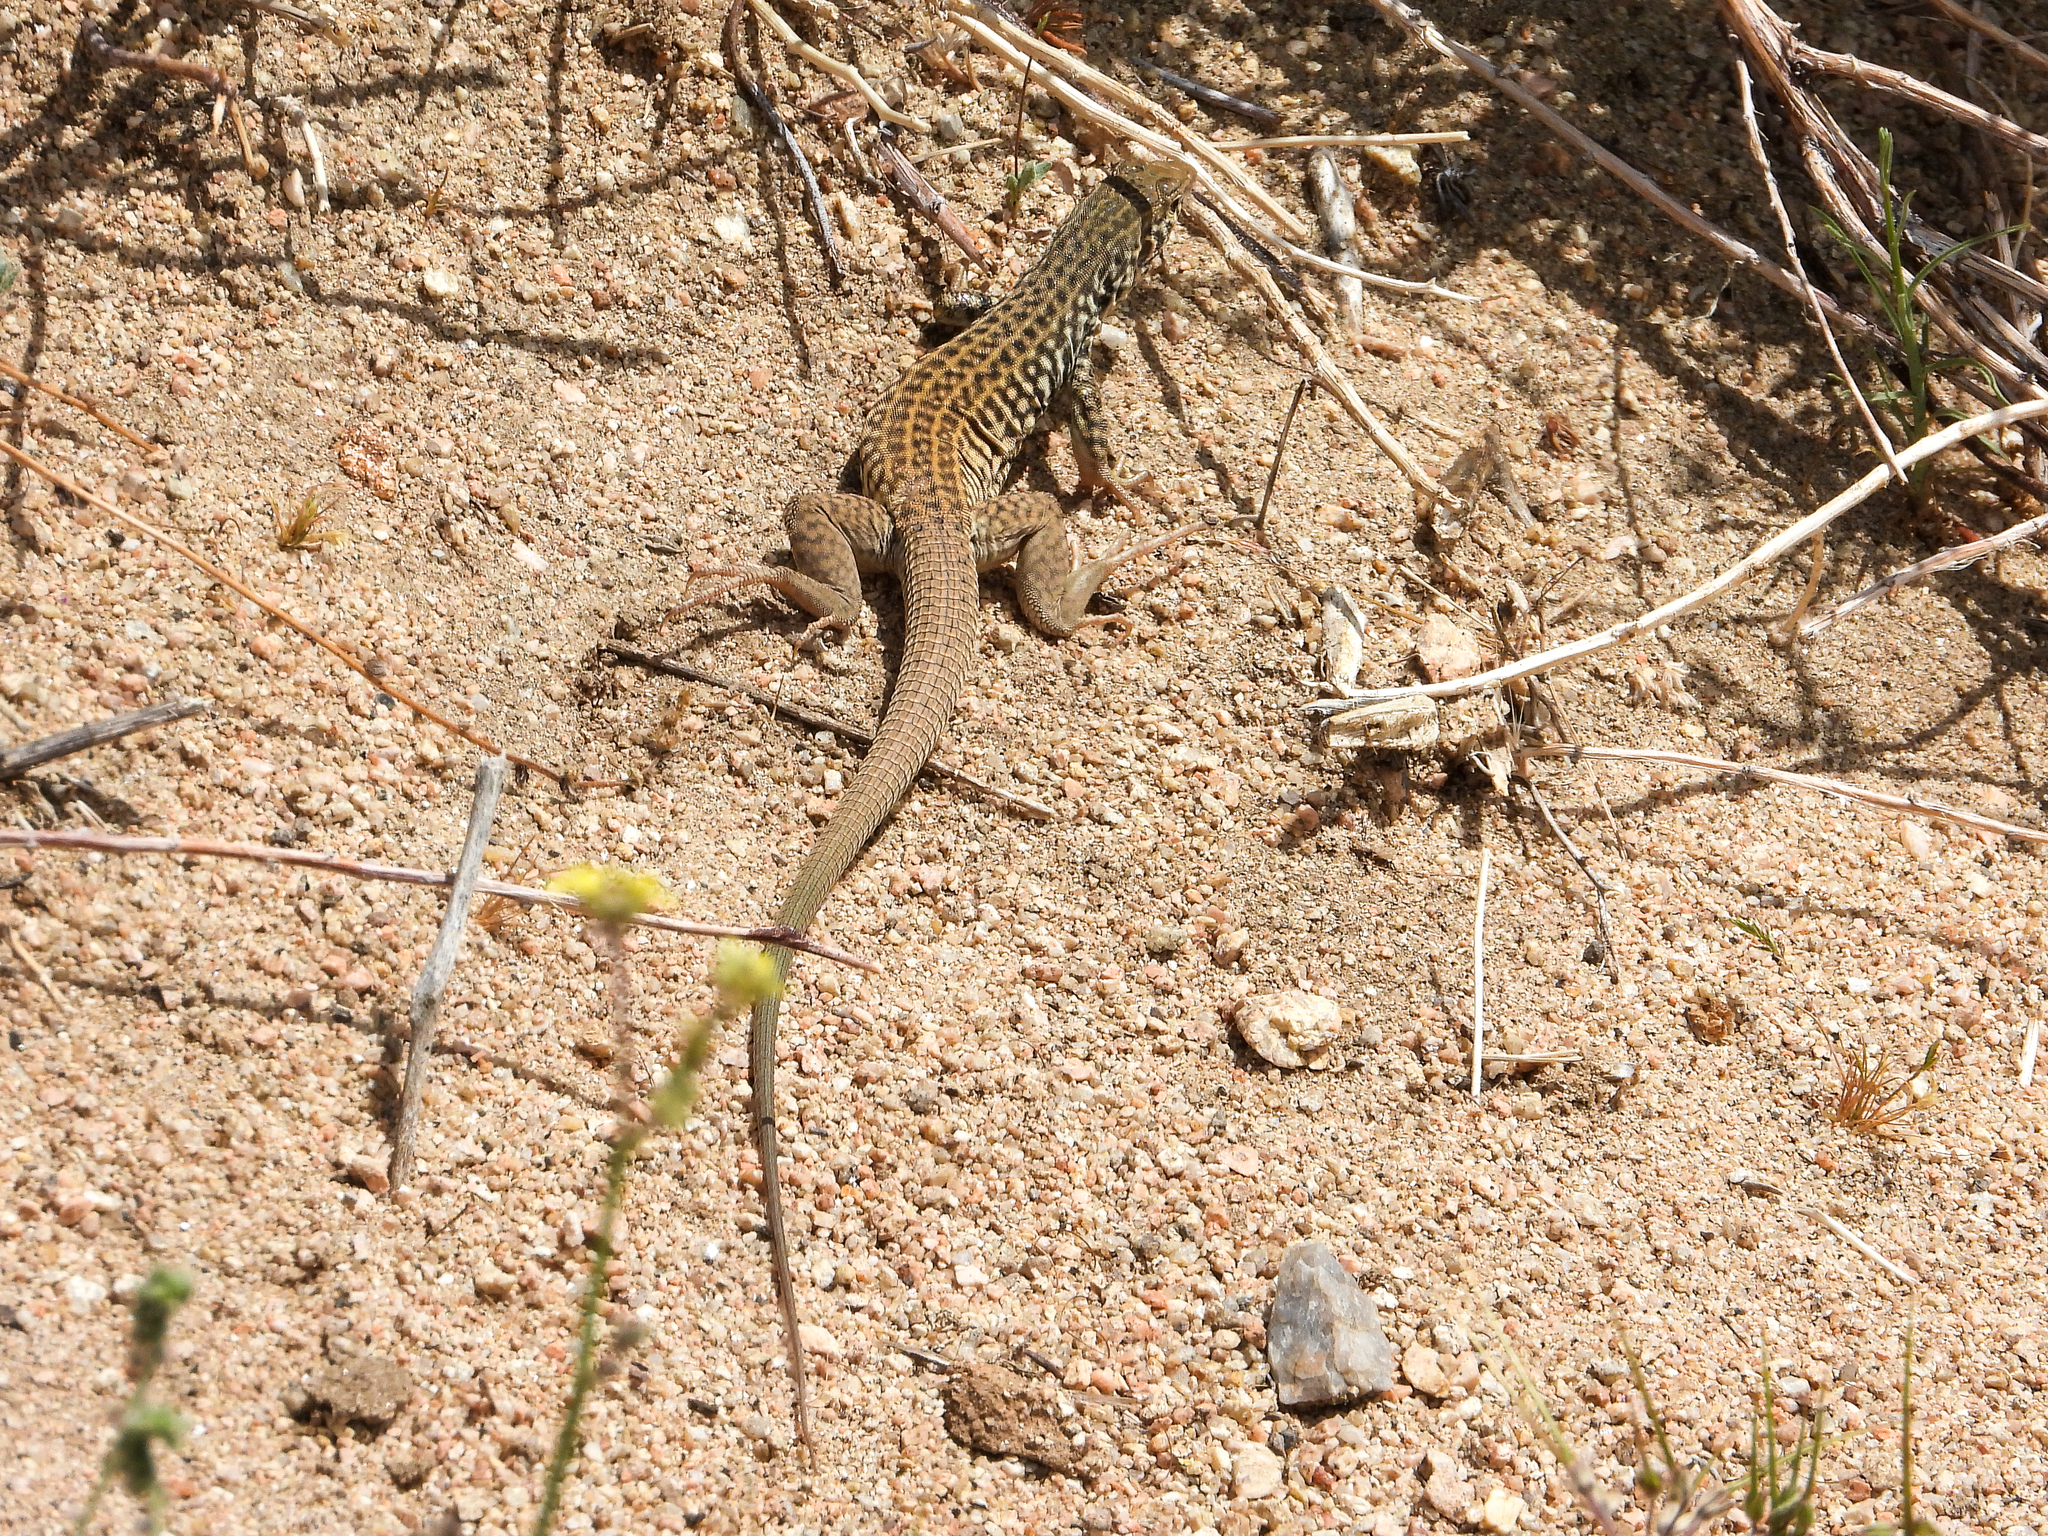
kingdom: Animalia
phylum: Chordata
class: Squamata
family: Teiidae
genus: Aspidoscelis
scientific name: Aspidoscelis tigris
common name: Tiger whiptail
